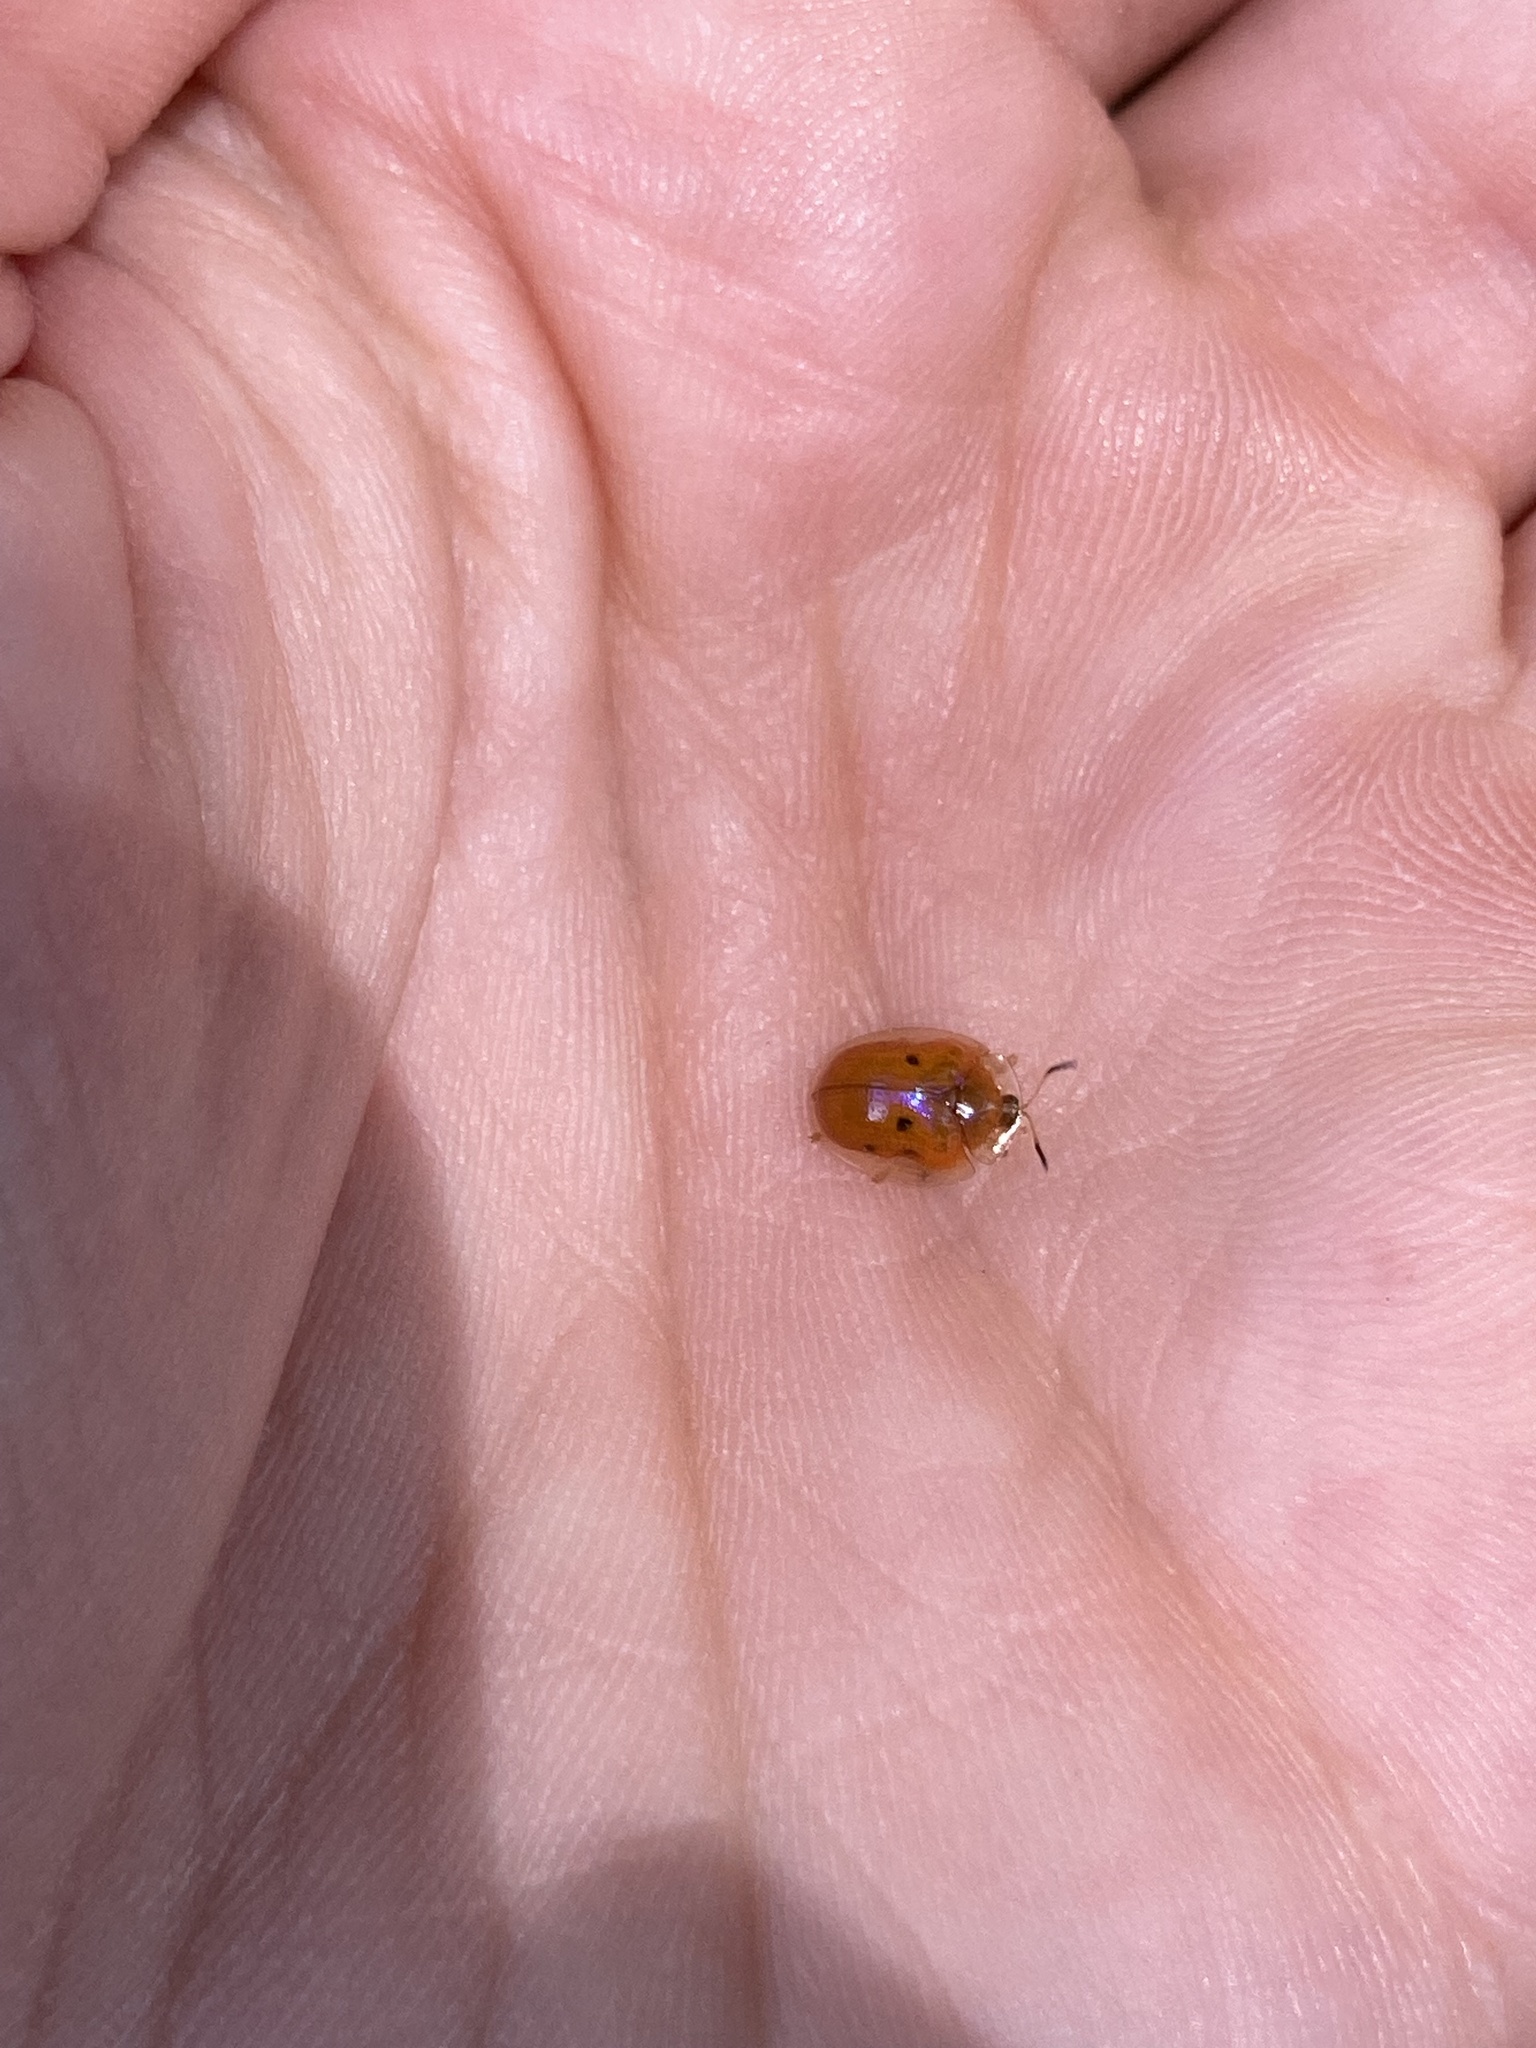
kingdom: Animalia
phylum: Arthropoda
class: Insecta
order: Coleoptera
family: Chrysomelidae
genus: Charidotella
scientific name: Charidotella sexpunctata
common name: Golden tortoise beetle
